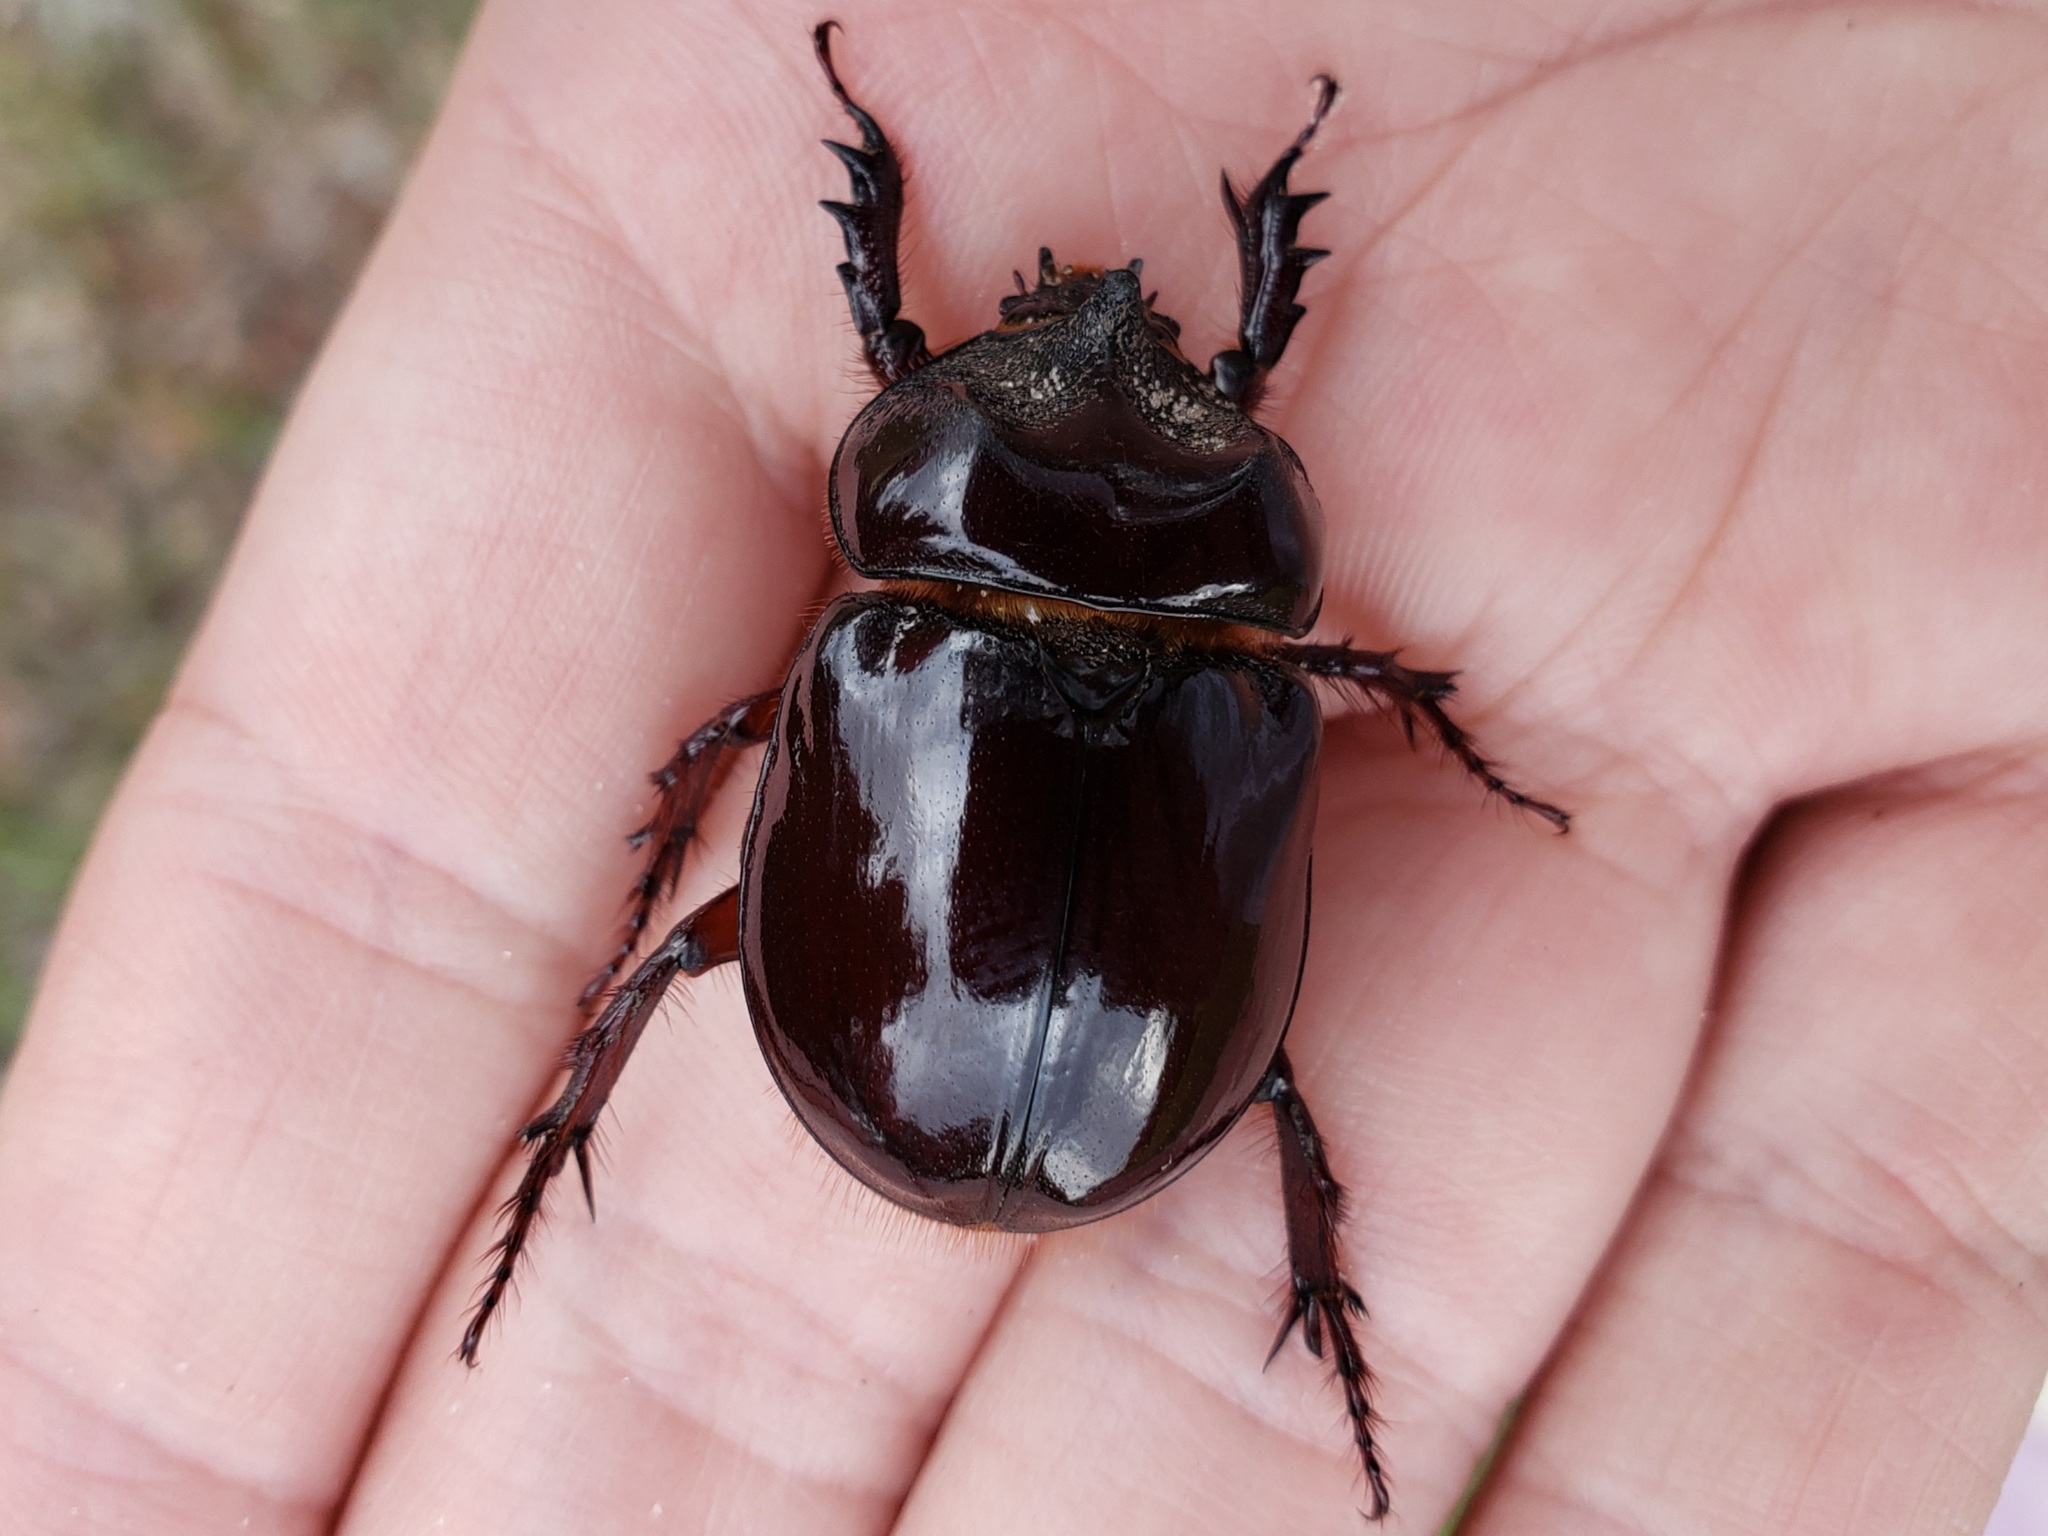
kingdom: Animalia
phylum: Arthropoda
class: Insecta
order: Coleoptera
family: Scarabaeidae
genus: Strategus
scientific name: Strategus antaeus
